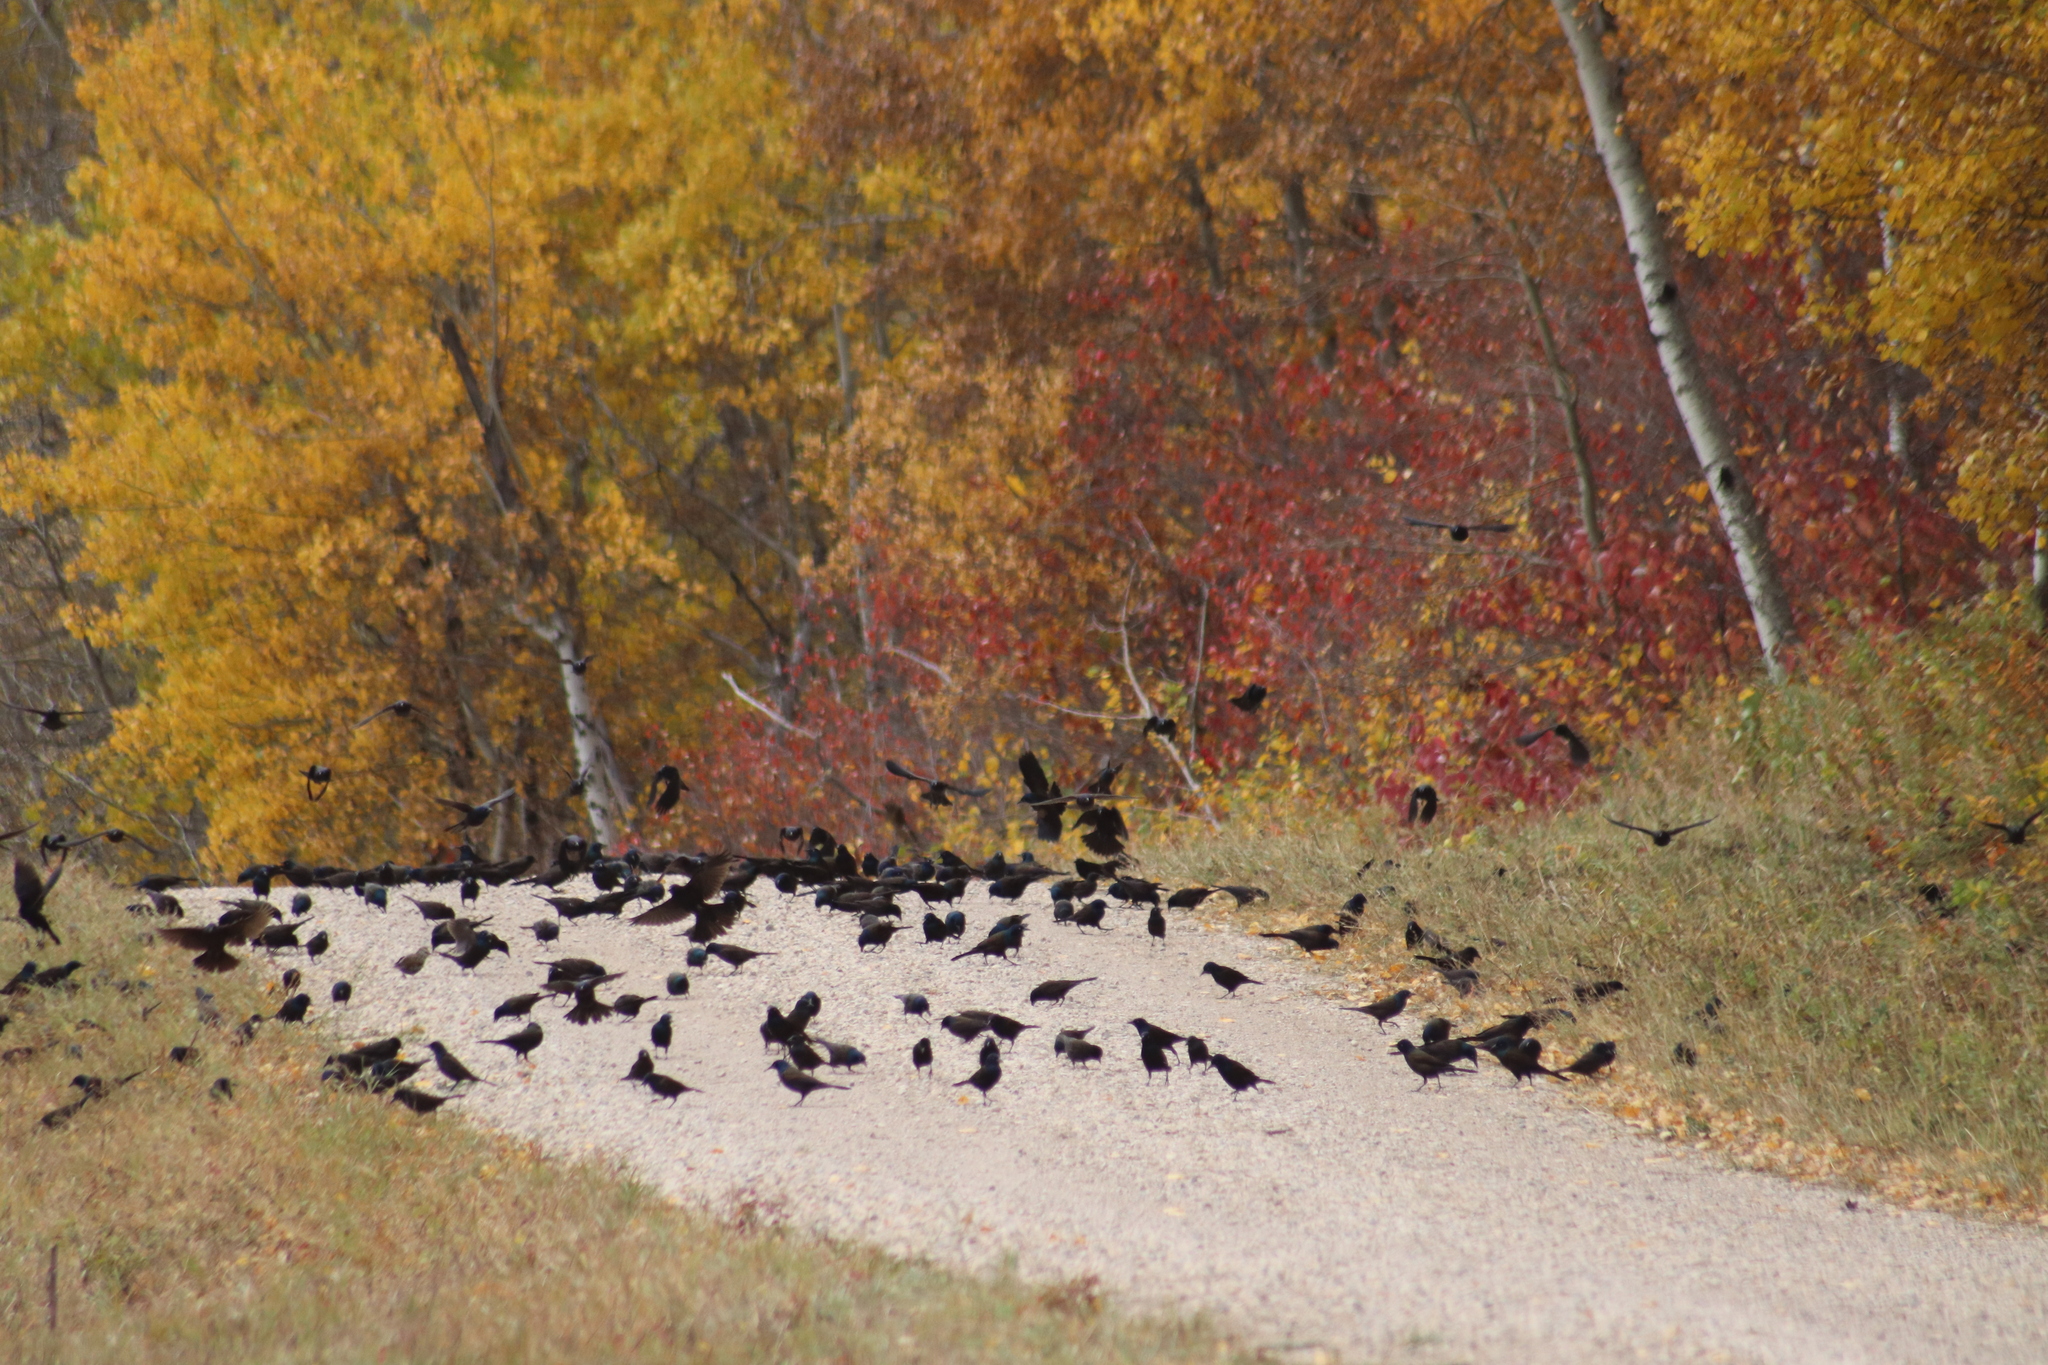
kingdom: Animalia
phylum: Chordata
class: Aves
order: Passeriformes
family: Icteridae
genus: Quiscalus
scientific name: Quiscalus quiscula
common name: Common grackle
